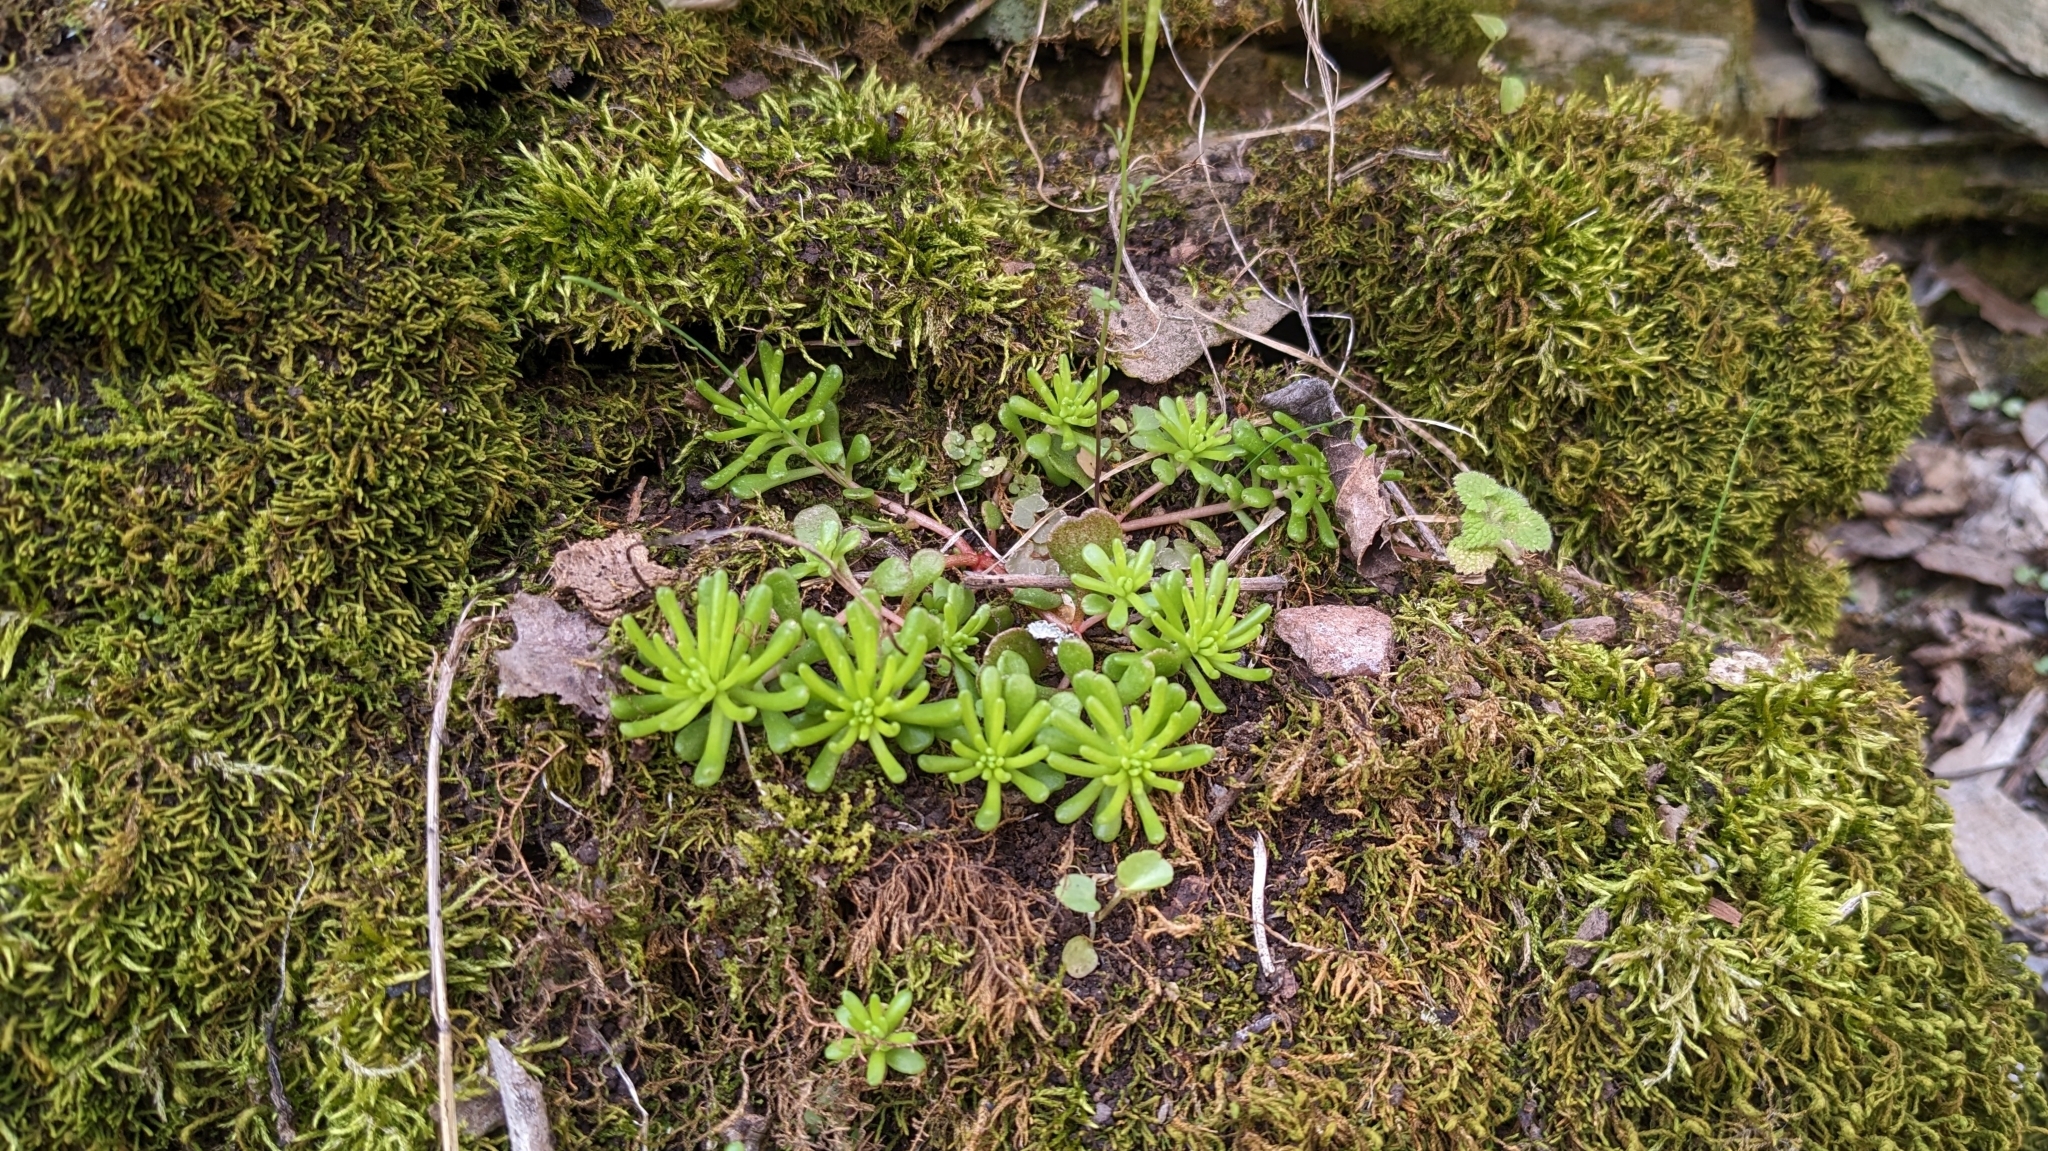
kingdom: Plantae
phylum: Tracheophyta
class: Magnoliopsida
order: Saxifragales
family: Crassulaceae
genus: Sedum
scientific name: Sedum pulchellum
